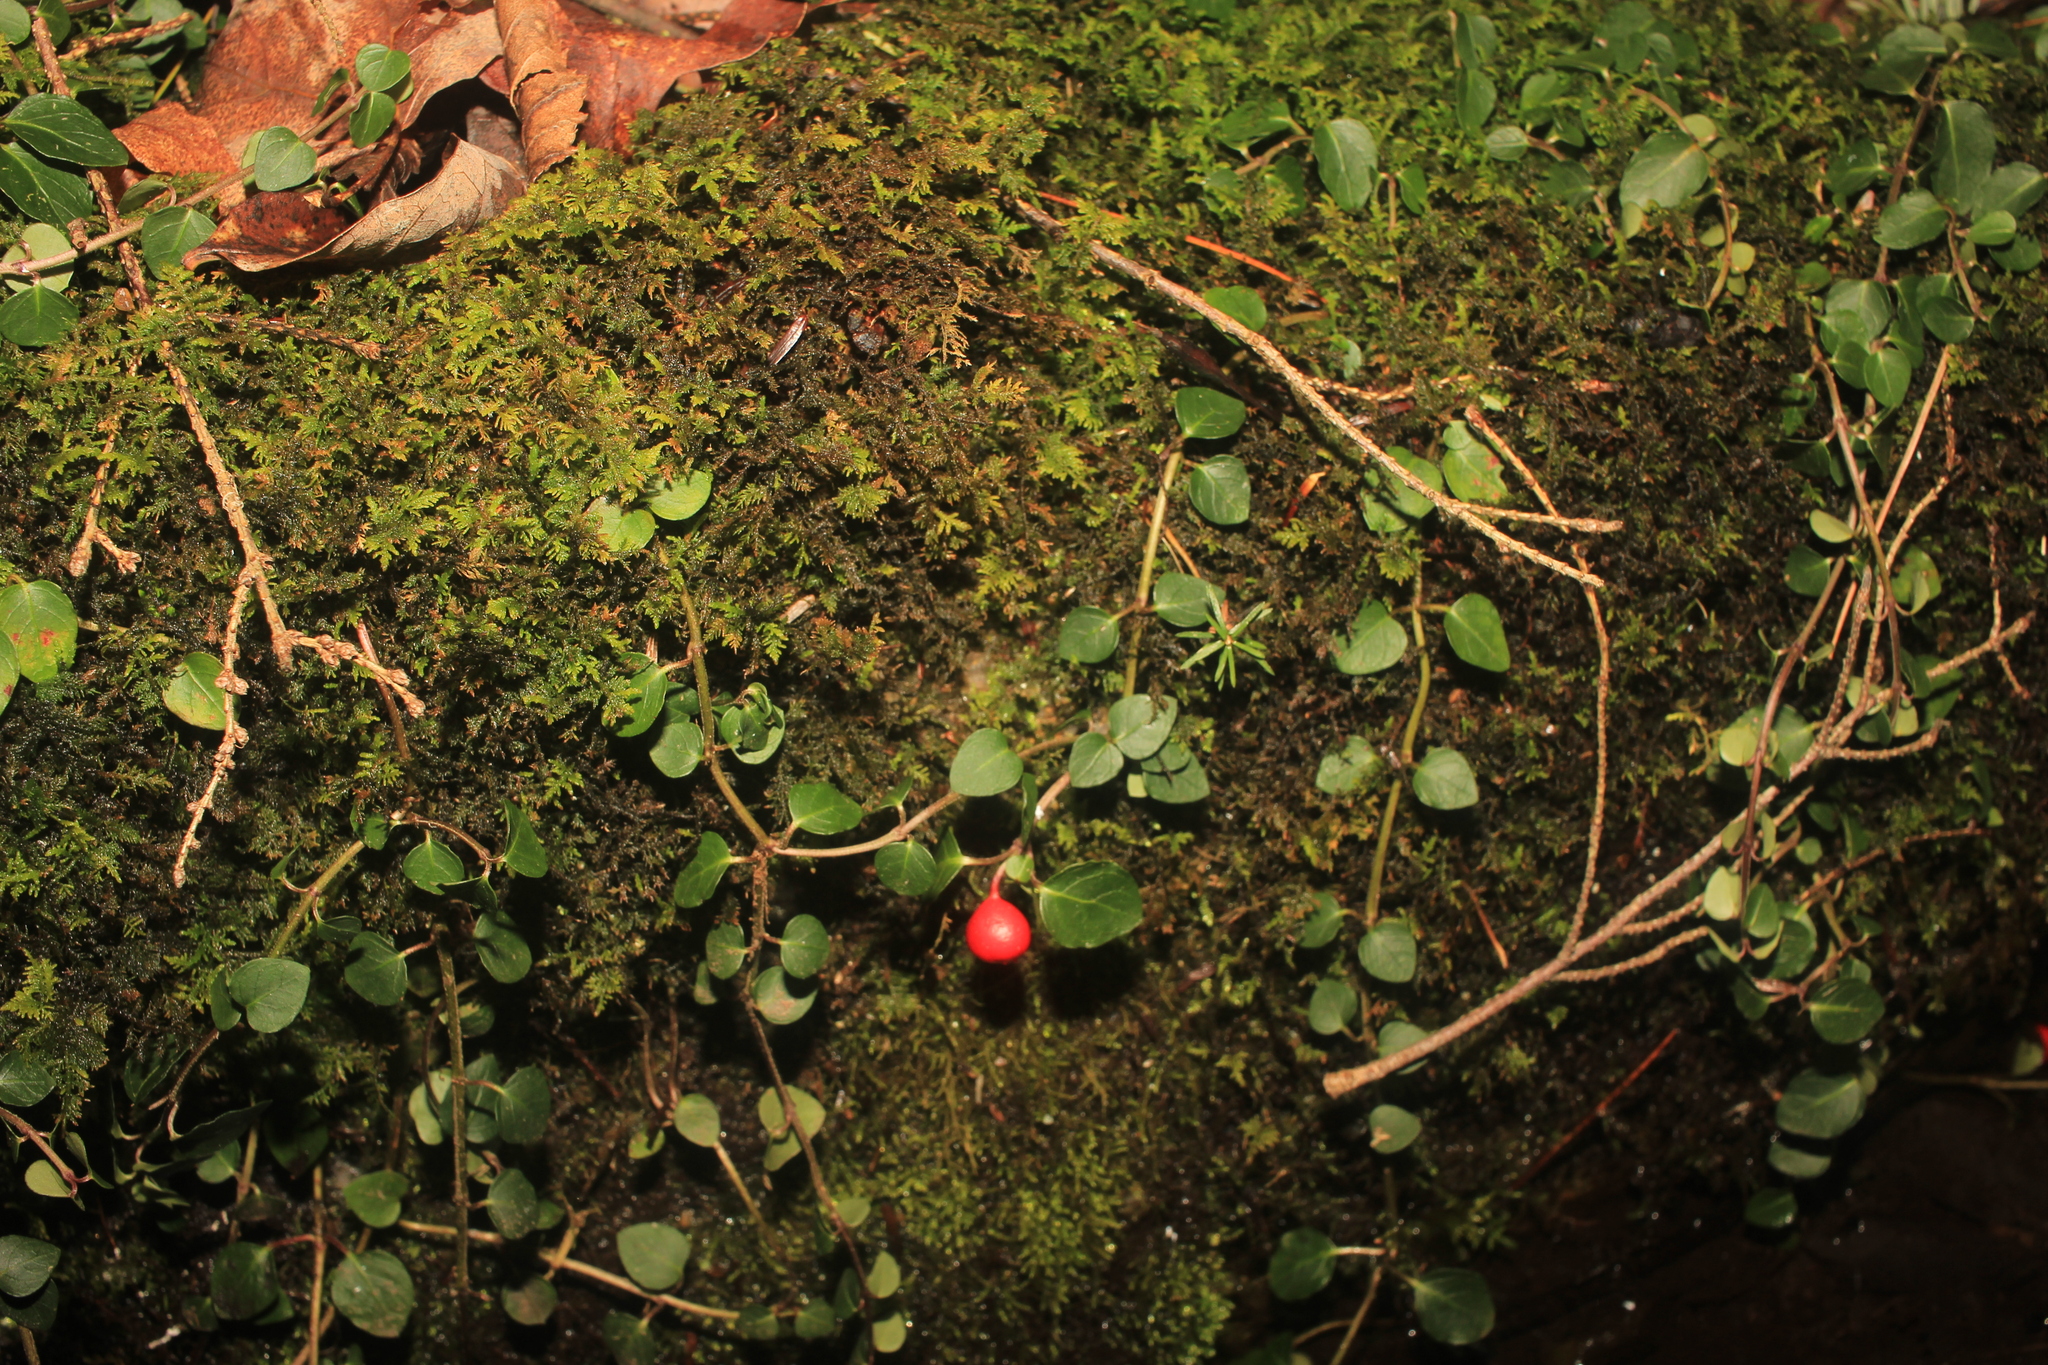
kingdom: Plantae
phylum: Tracheophyta
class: Magnoliopsida
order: Gentianales
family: Rubiaceae
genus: Mitchella
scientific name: Mitchella repens
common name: Partridge-berry
